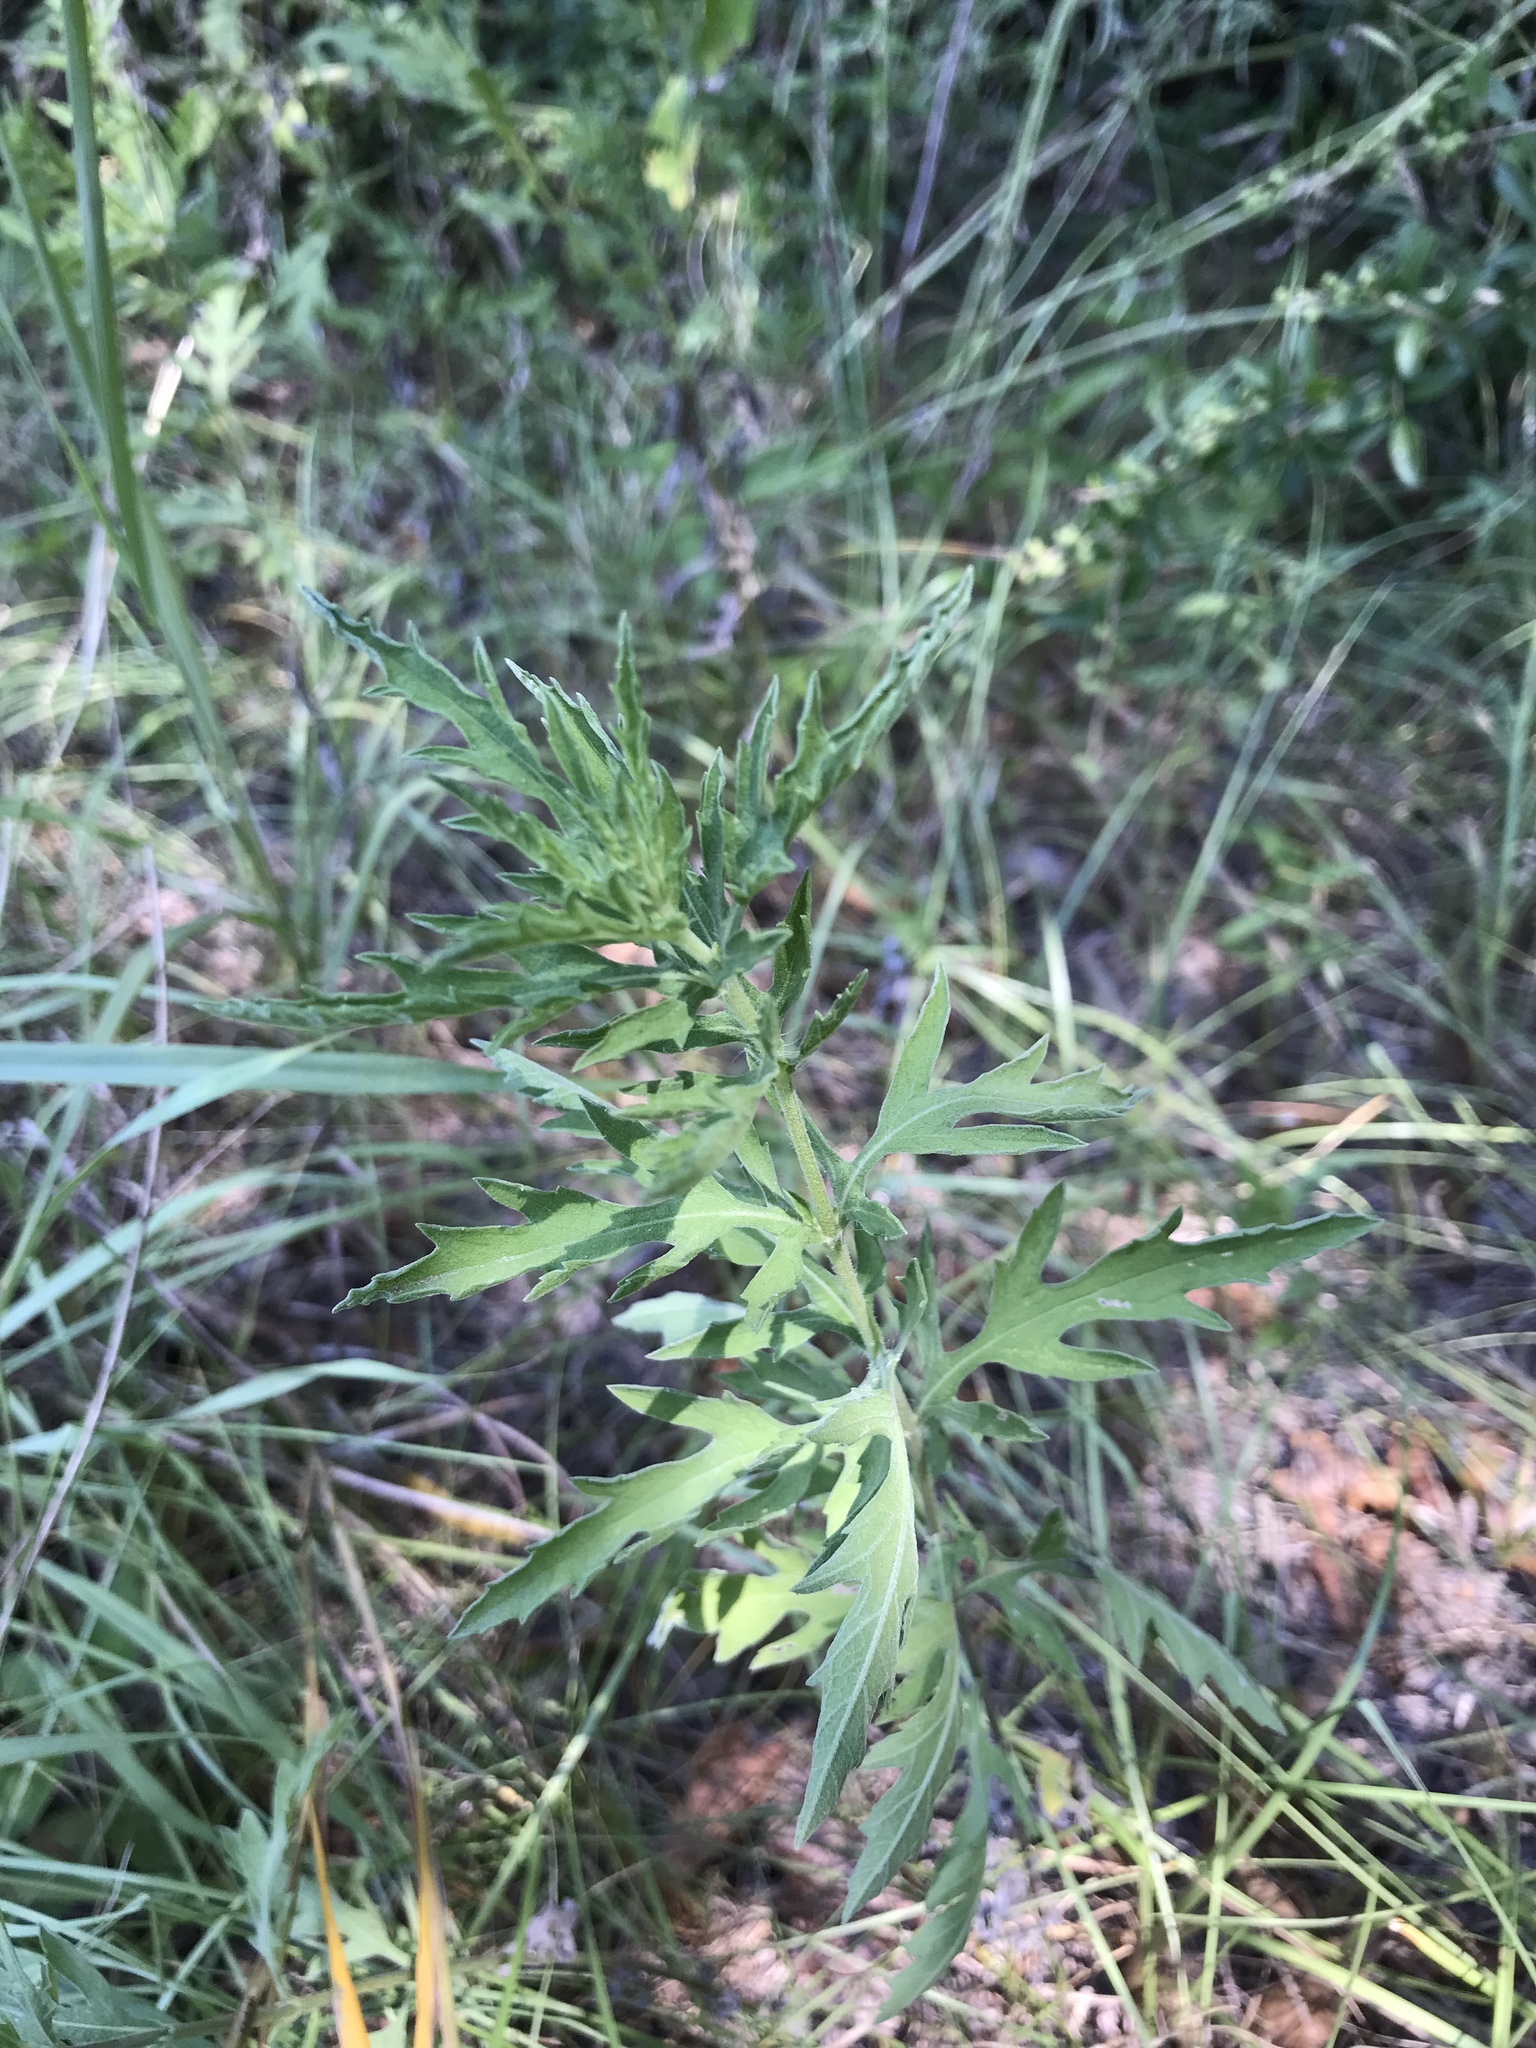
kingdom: Plantae
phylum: Tracheophyta
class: Magnoliopsida
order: Asterales
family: Asteraceae
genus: Ambrosia
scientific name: Ambrosia psilostachya
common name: Perennial ragweed
